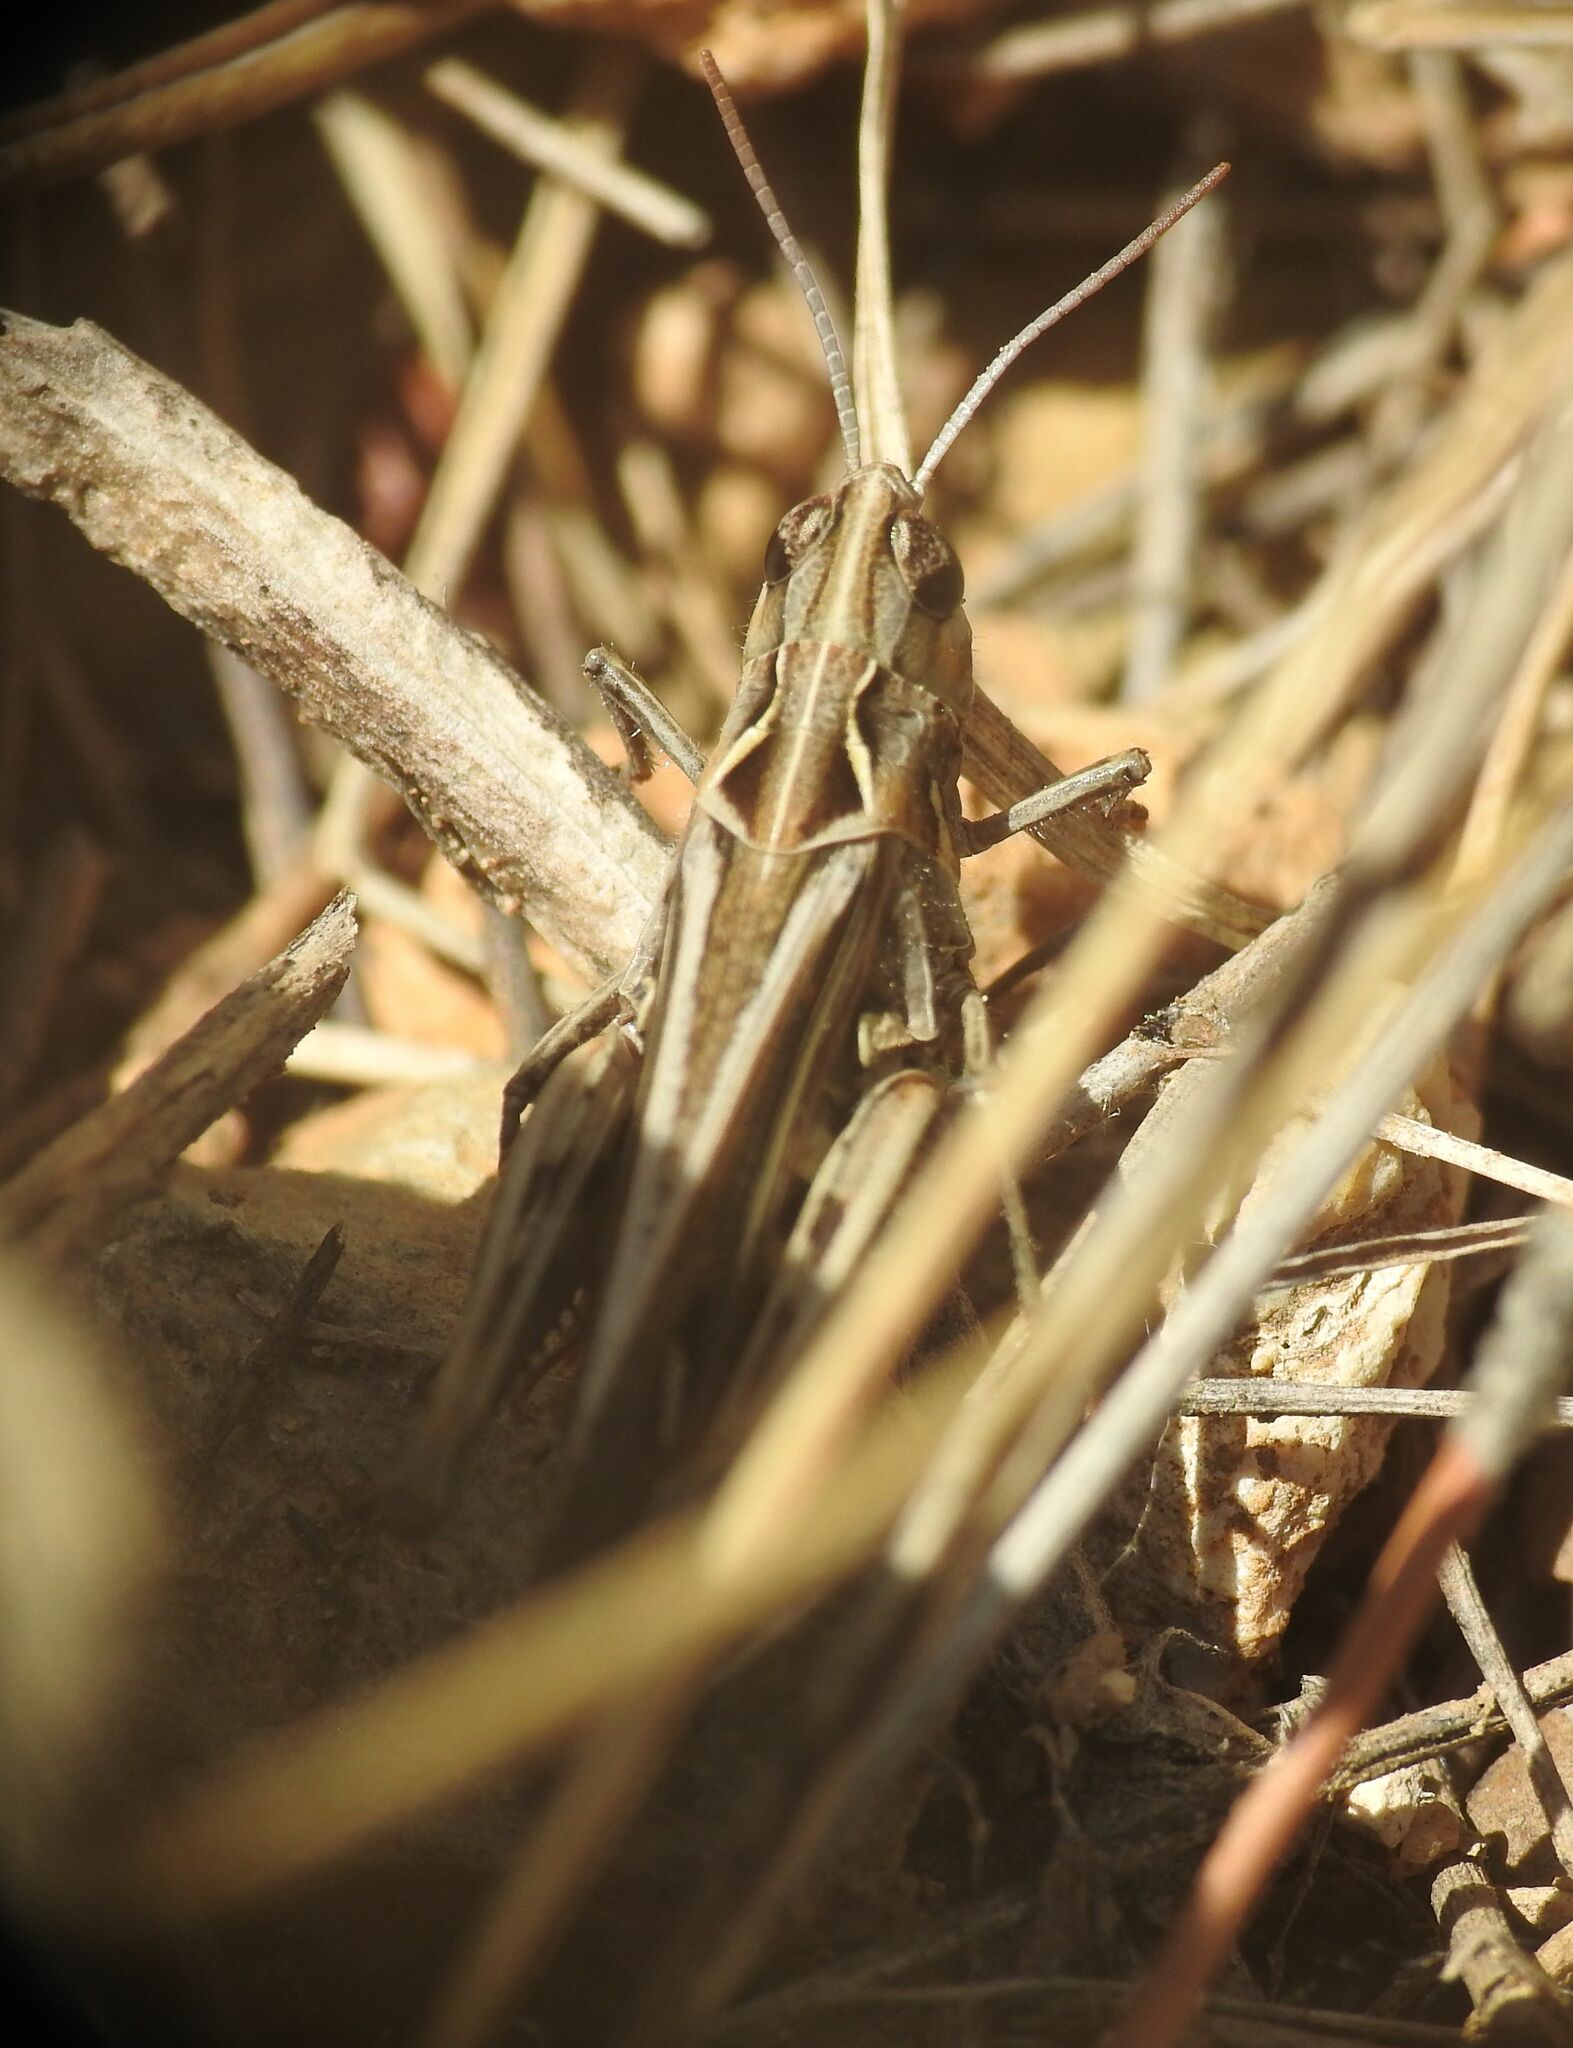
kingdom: Animalia
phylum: Arthropoda
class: Insecta
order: Orthoptera
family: Acrididae
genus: Omocestus
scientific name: Omocestus raymondi
